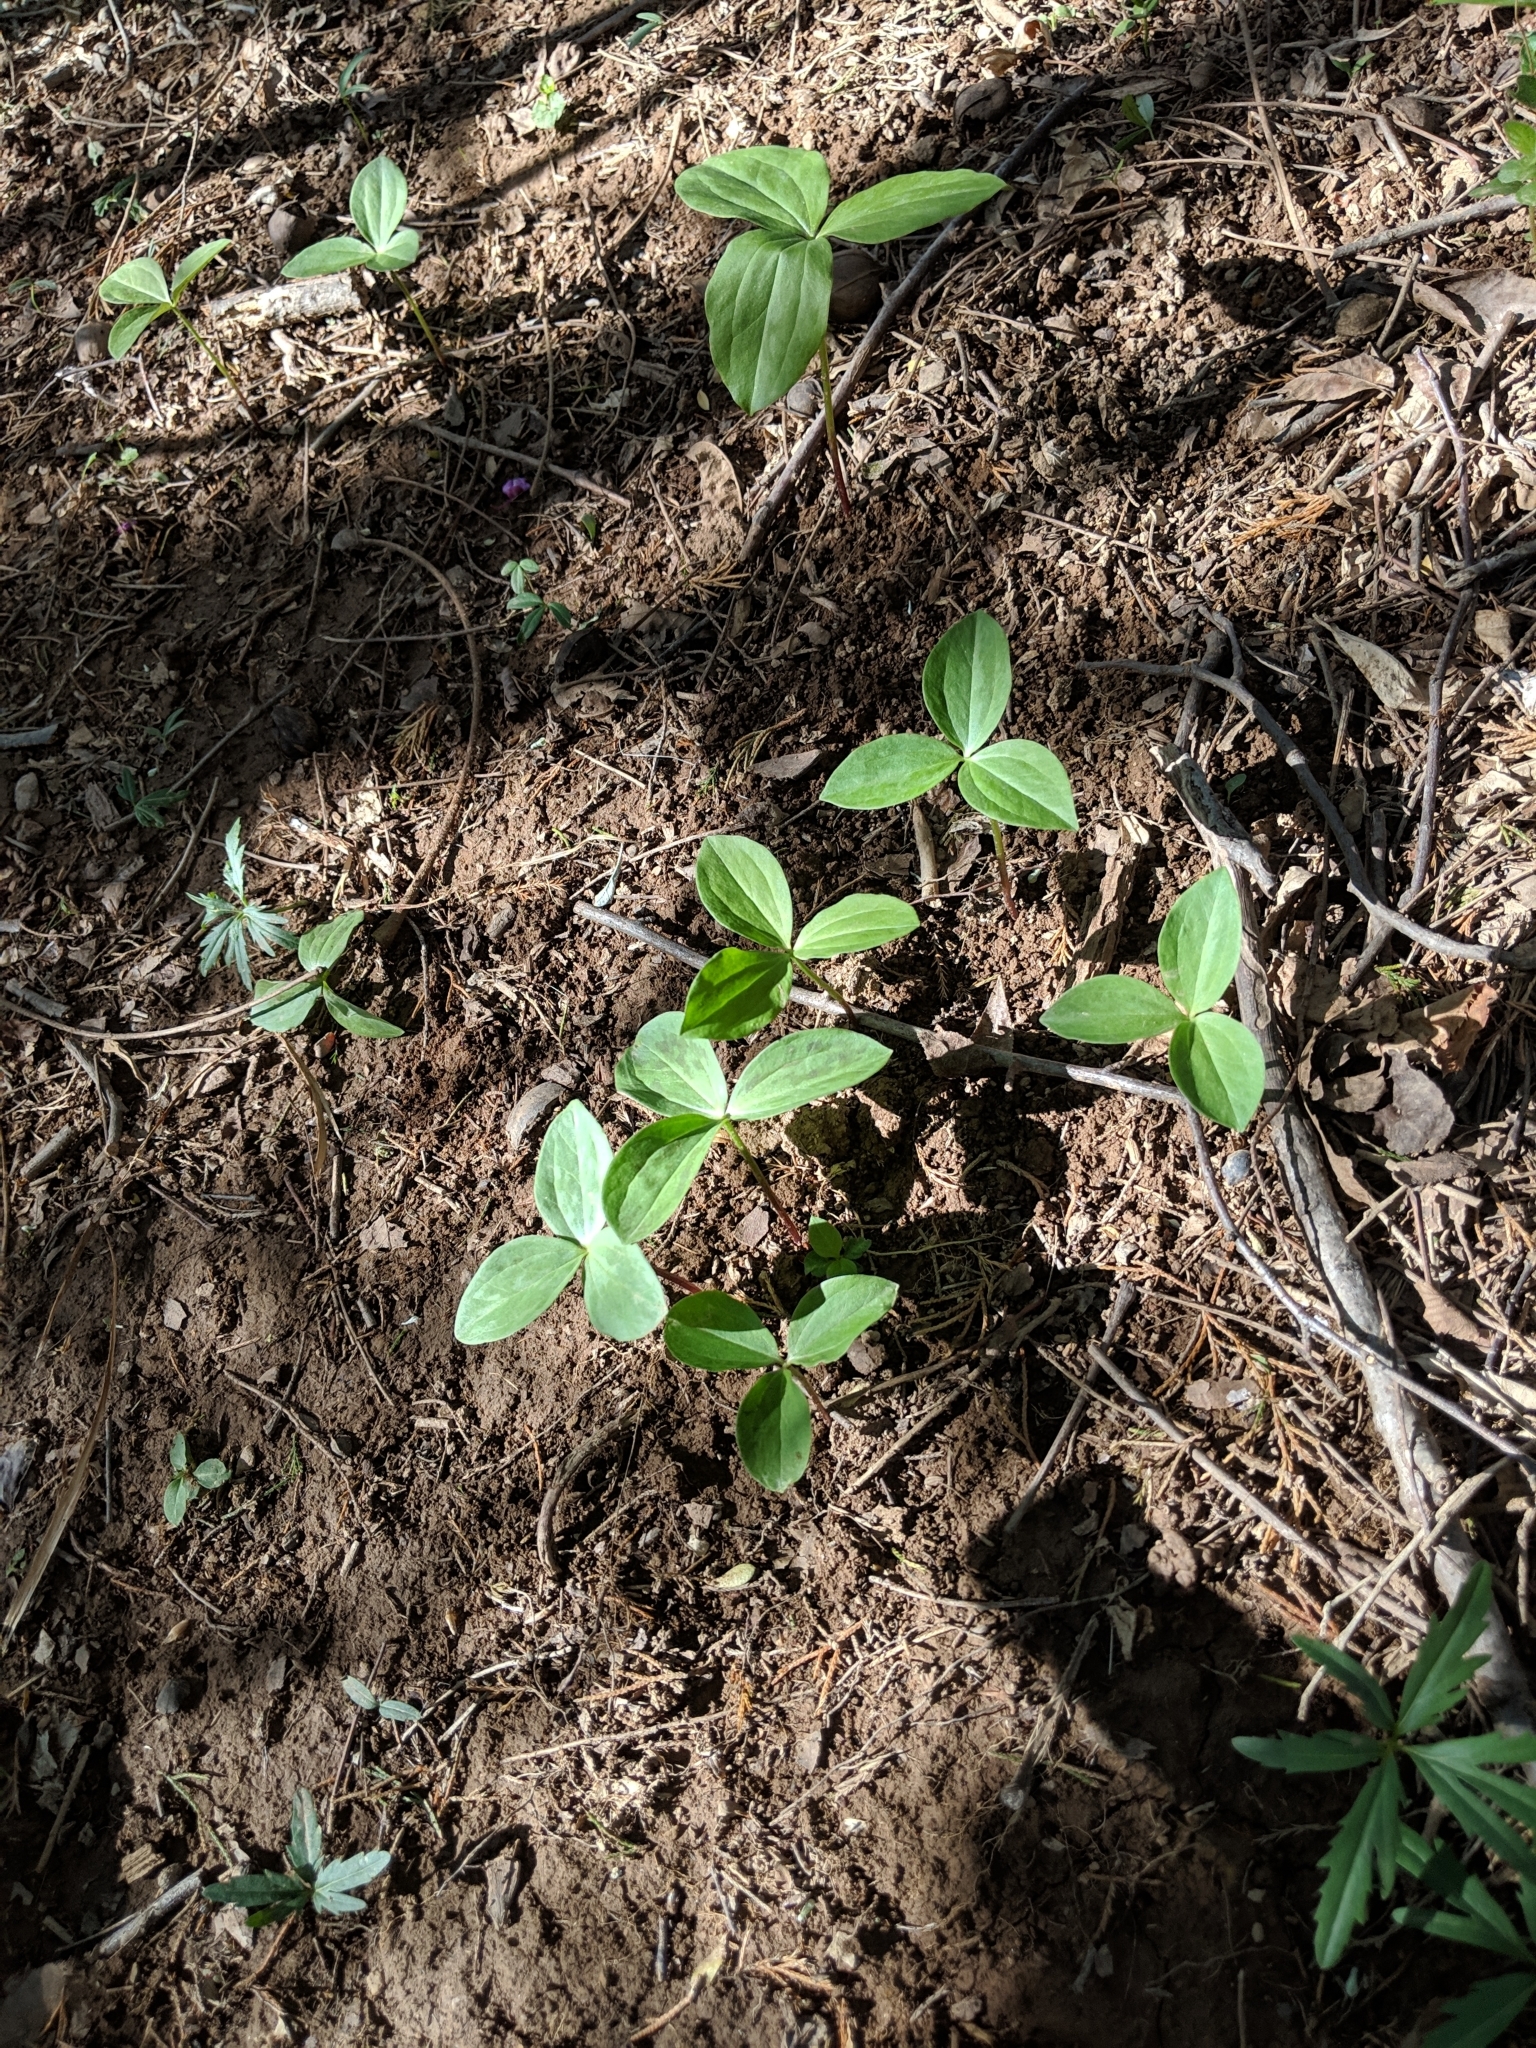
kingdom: Plantae
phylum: Tracheophyta
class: Liliopsida
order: Liliales
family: Melanthiaceae
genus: Trillium
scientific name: Trillium sessile
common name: Sessile trillium
